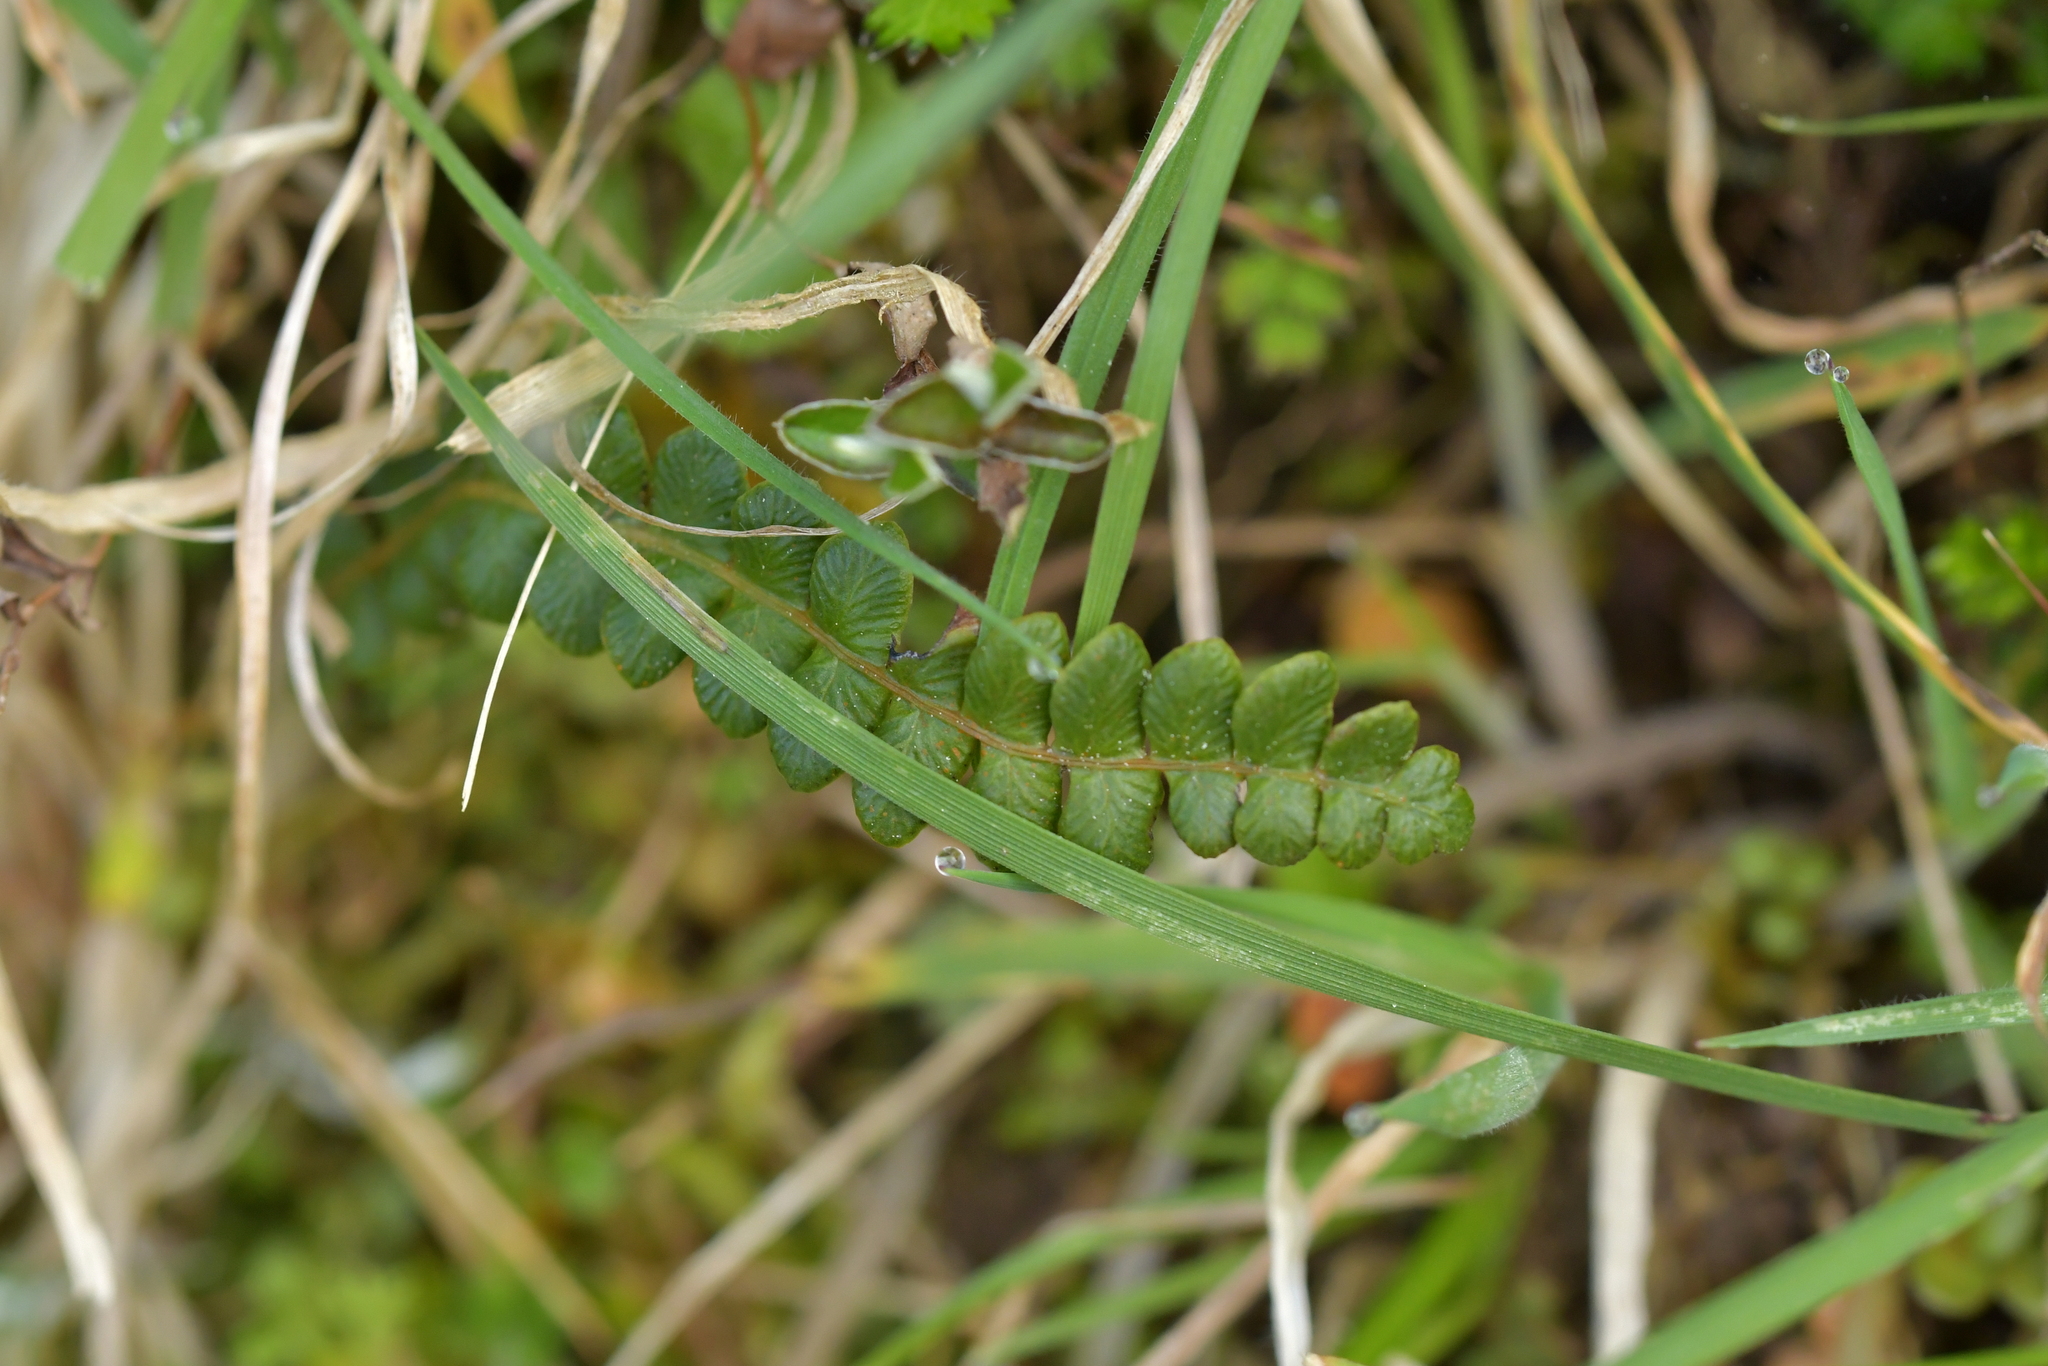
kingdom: Plantae
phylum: Tracheophyta
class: Polypodiopsida
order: Polypodiales
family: Blechnaceae
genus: Austroblechnum
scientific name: Austroblechnum penna-marina
